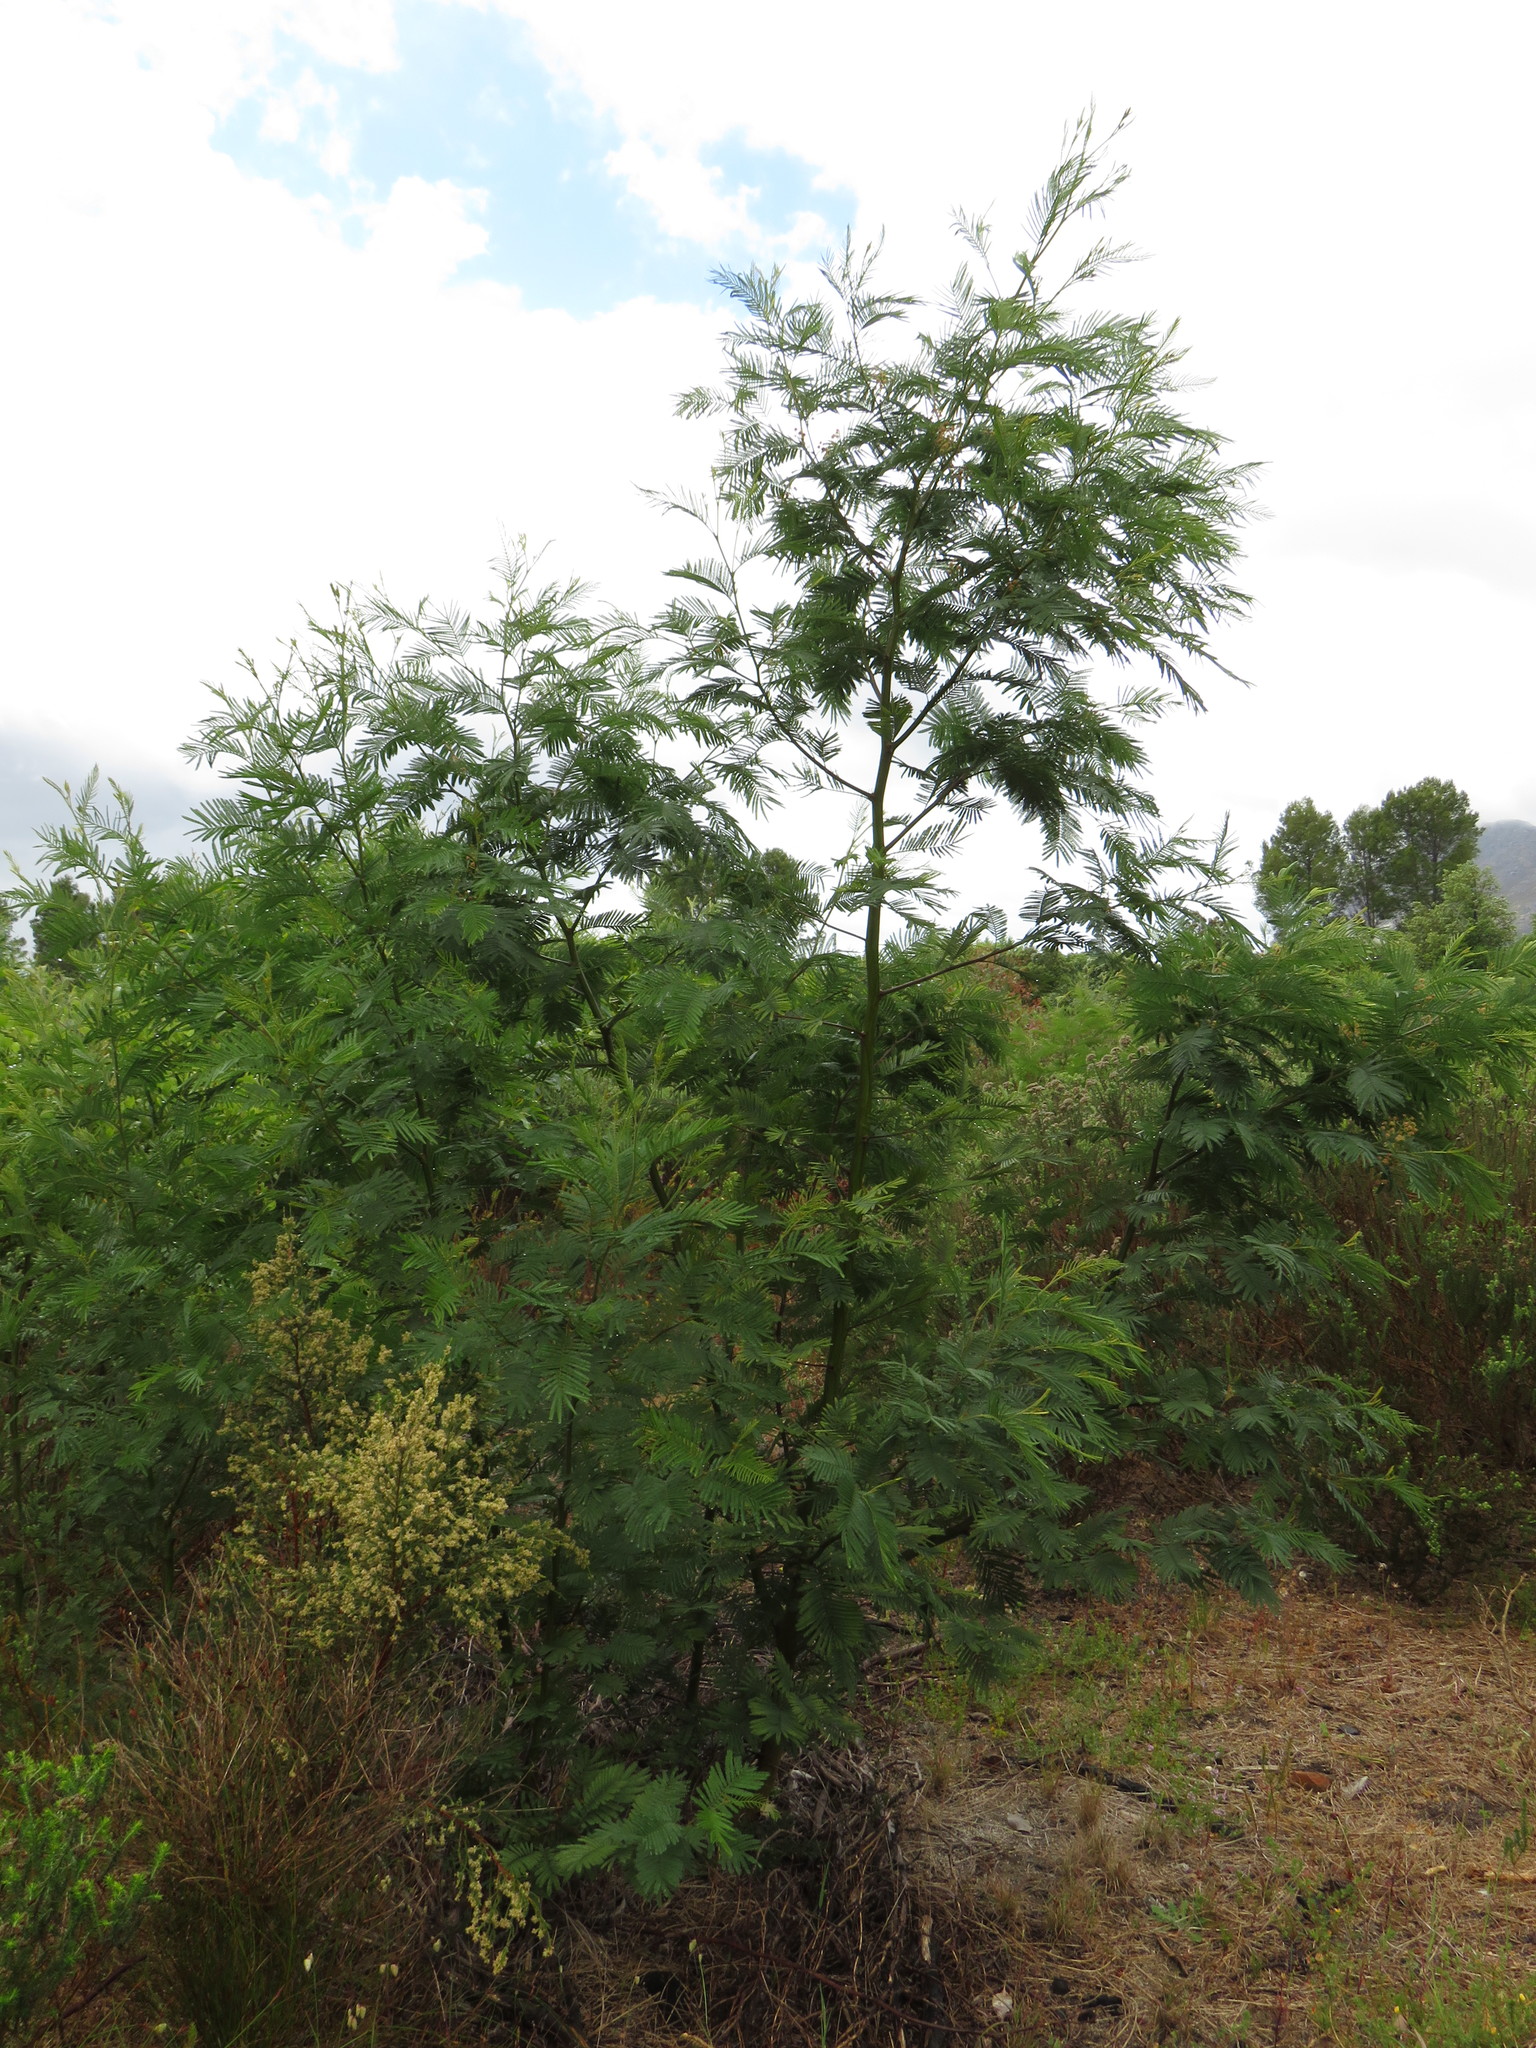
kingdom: Plantae
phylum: Tracheophyta
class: Magnoliopsida
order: Fabales
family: Fabaceae
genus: Acacia
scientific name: Acacia mearnsii
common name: Black wattle
